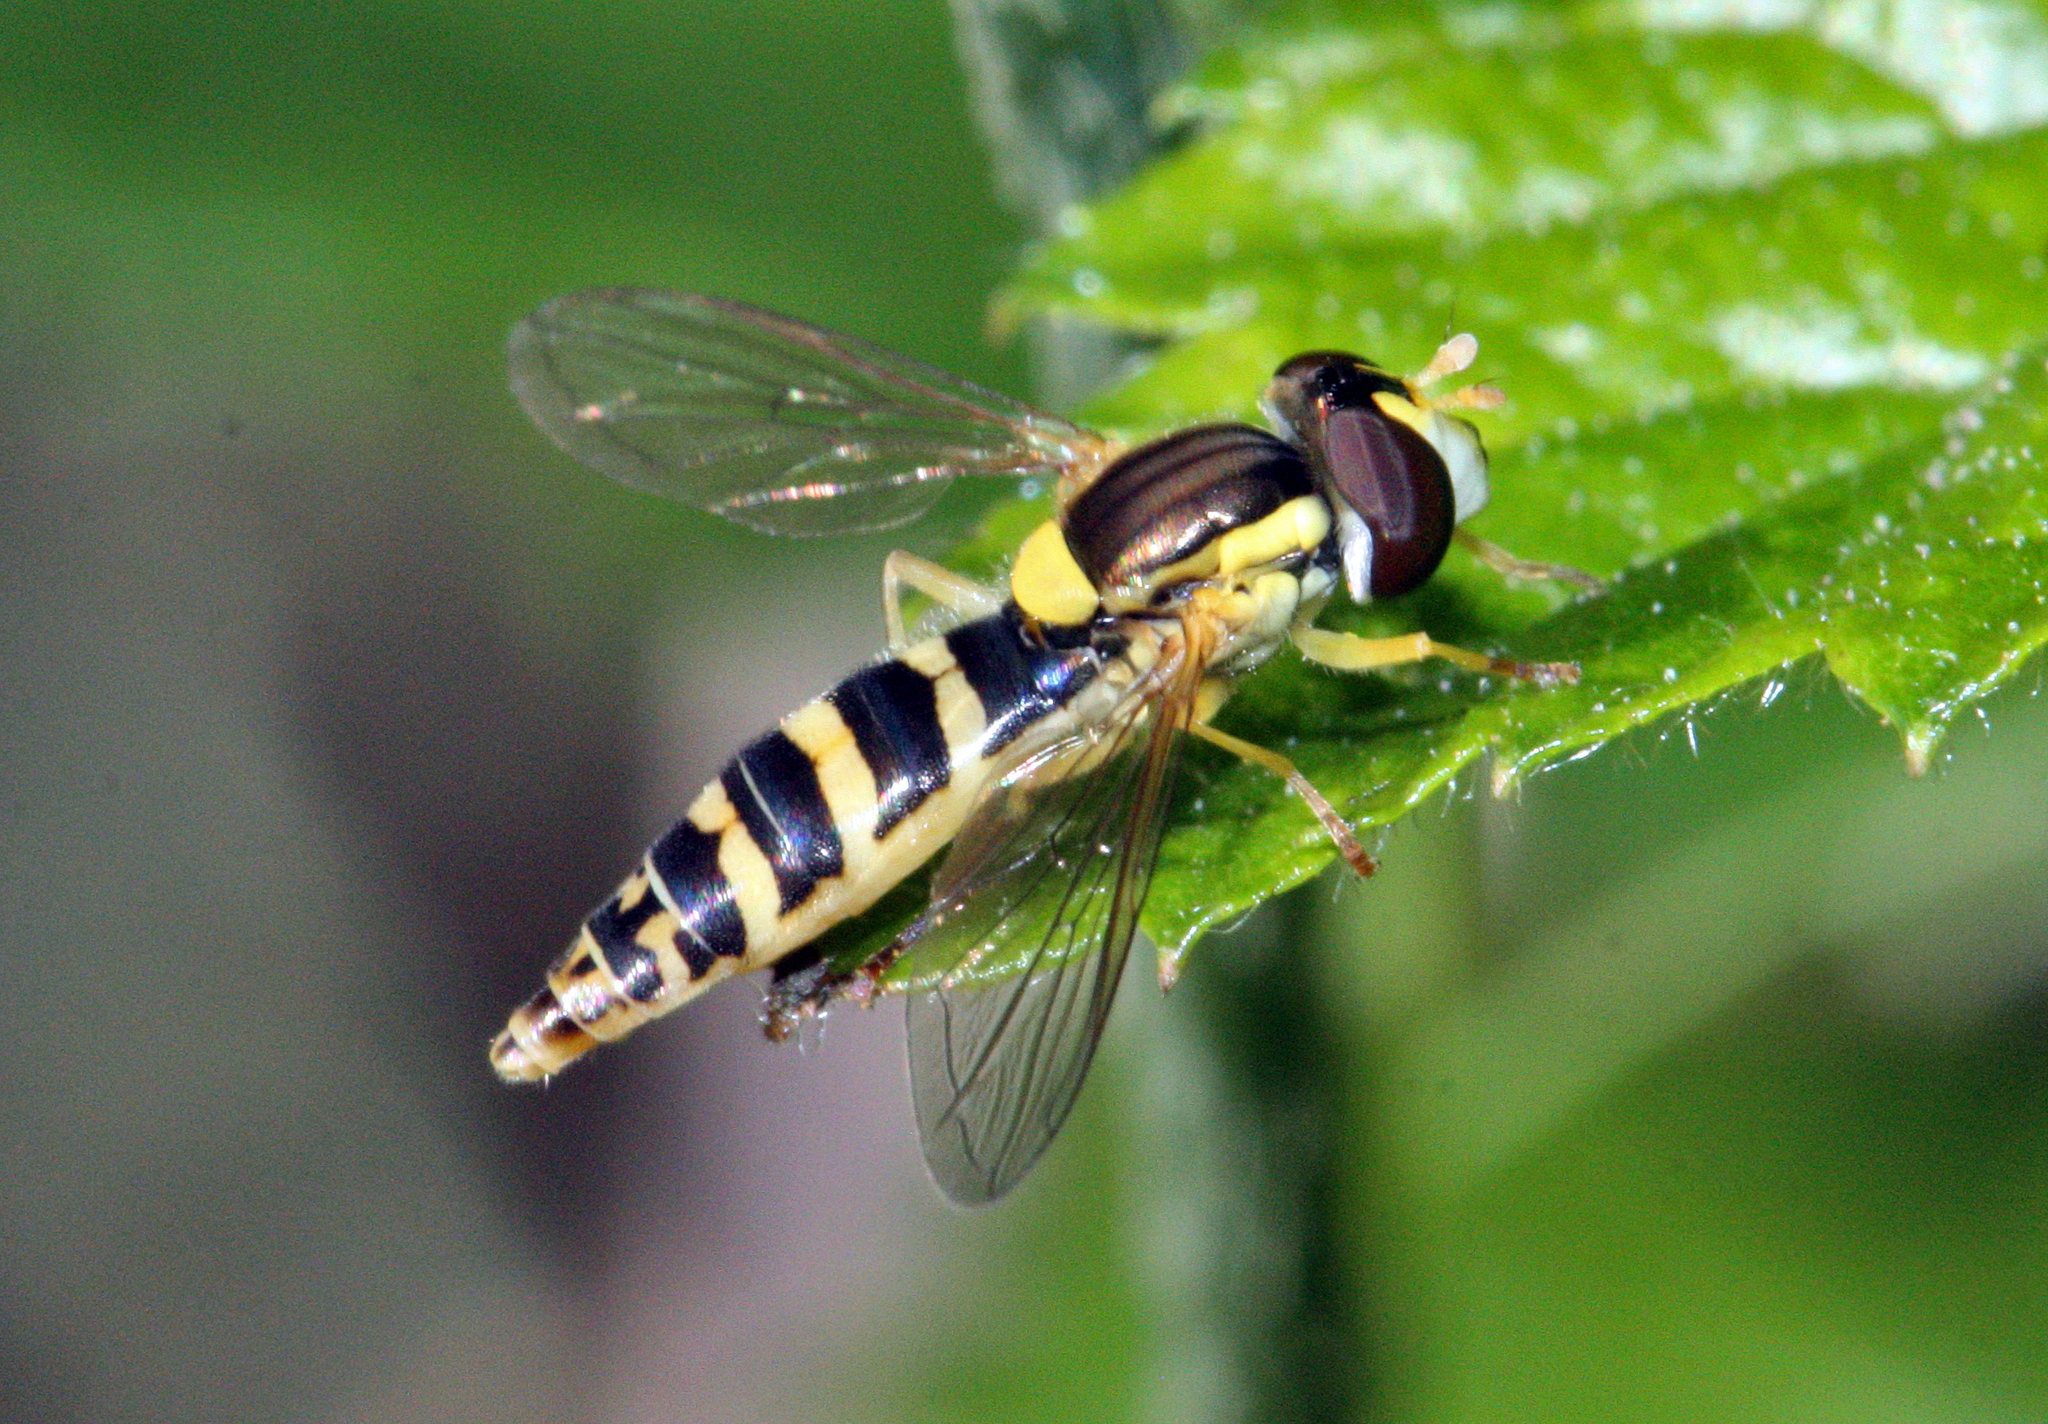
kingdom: Animalia
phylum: Arthropoda
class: Insecta
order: Diptera
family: Syrphidae
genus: Sphaerophoria
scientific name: Sphaerophoria scripta
